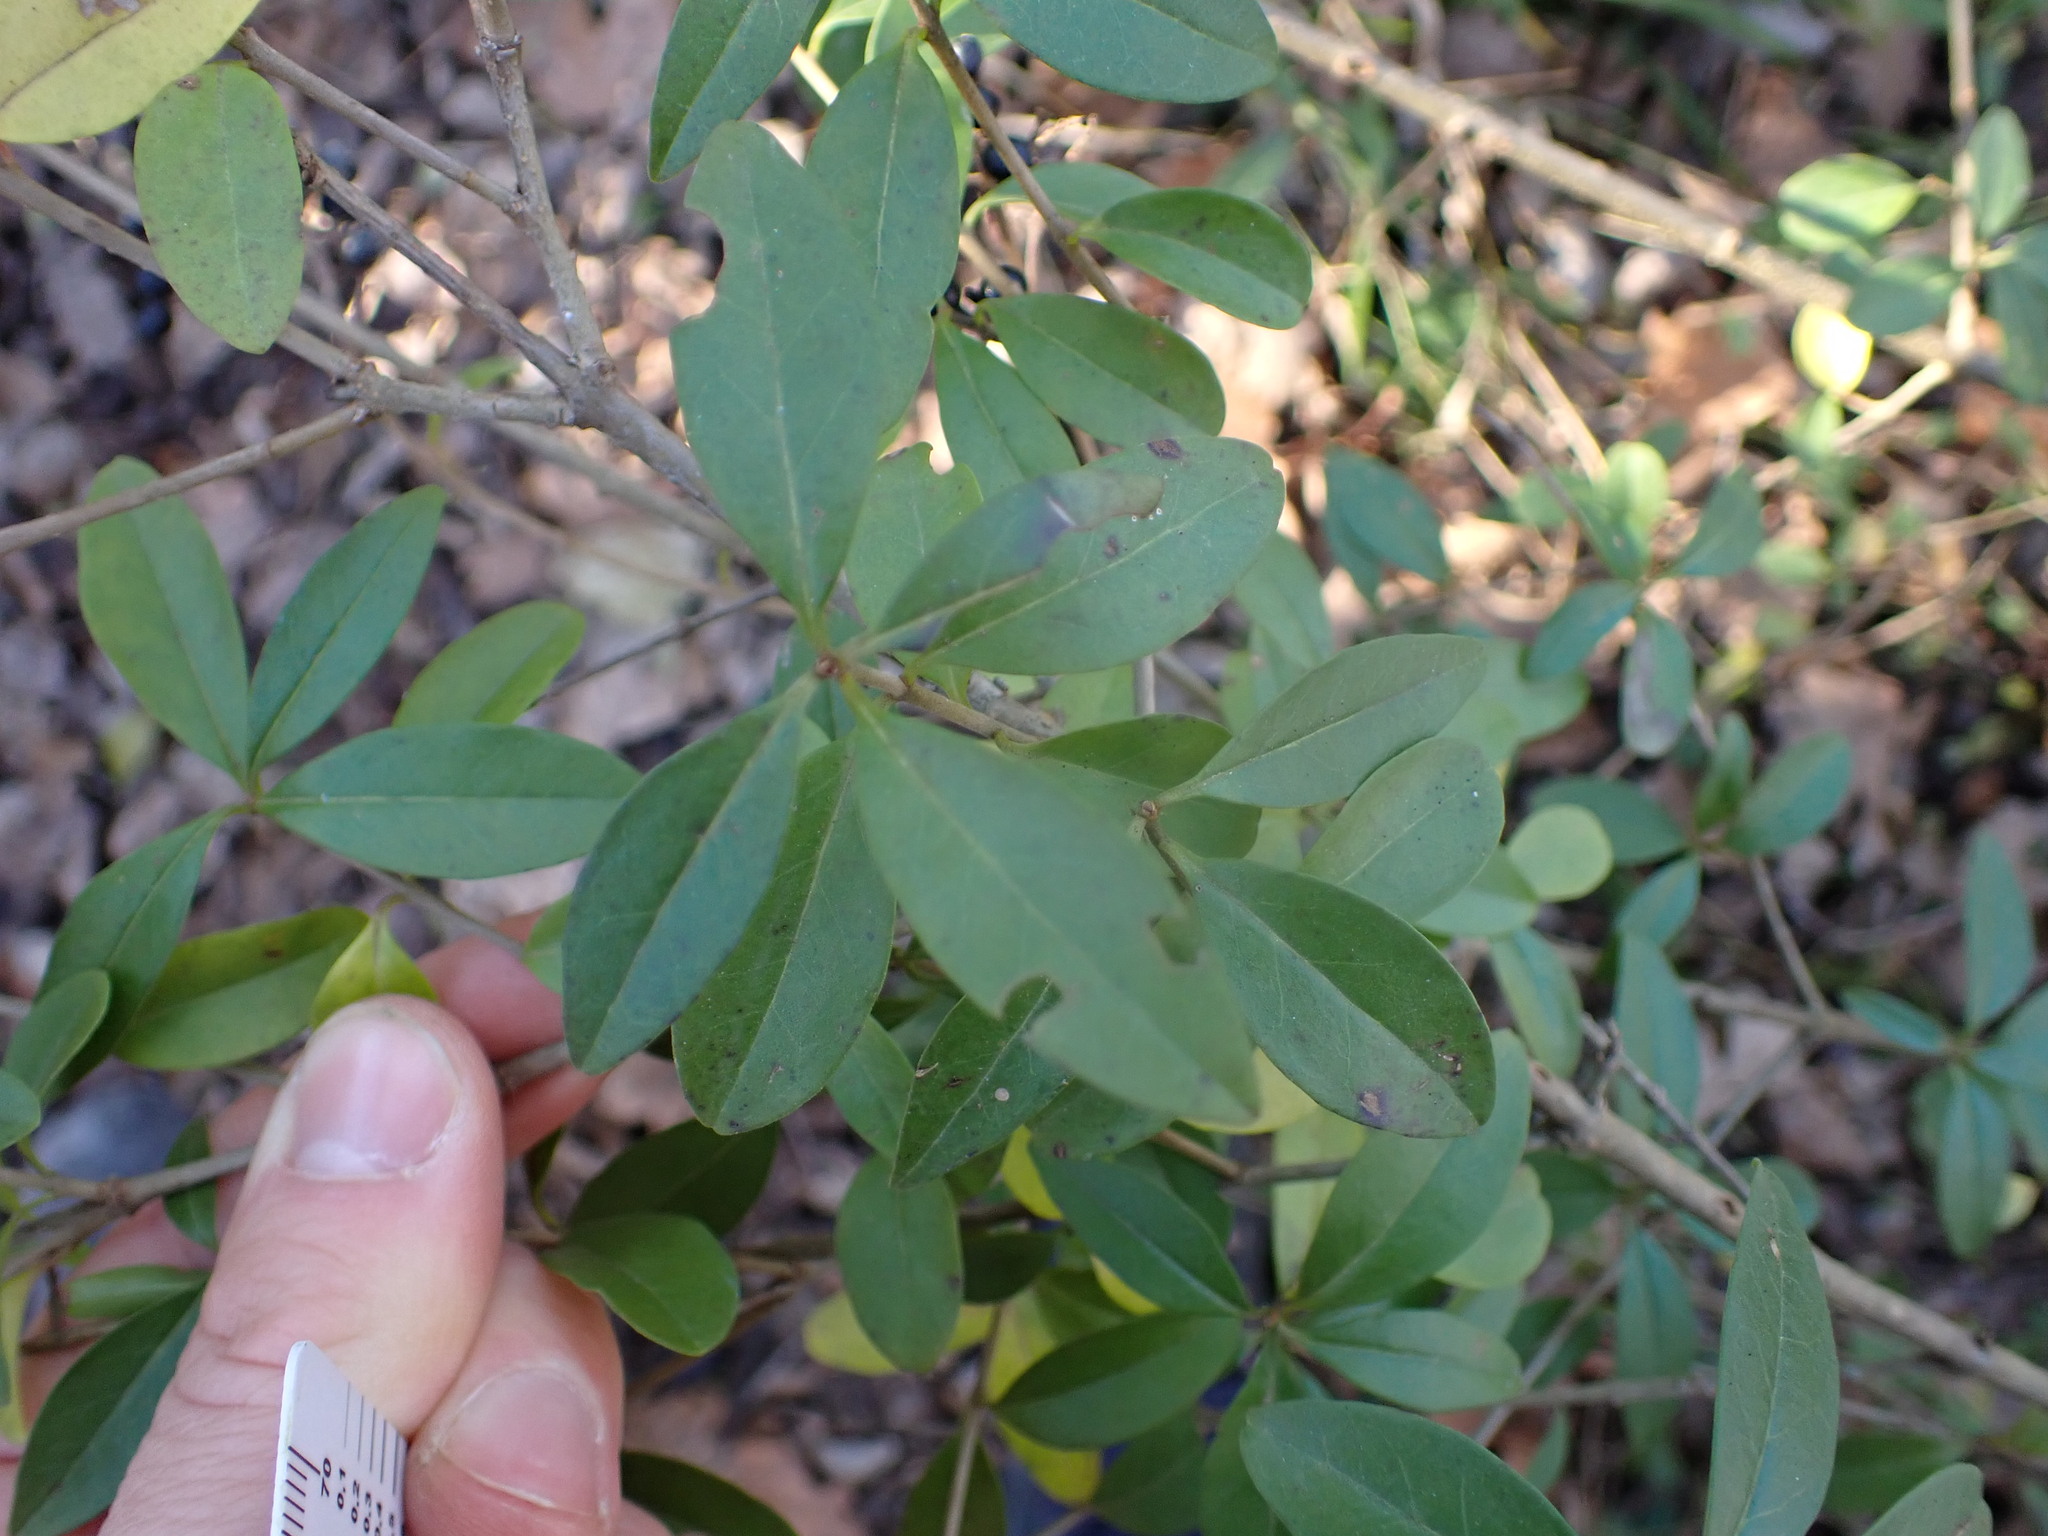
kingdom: Plantae
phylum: Tracheophyta
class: Magnoliopsida
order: Lamiales
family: Oleaceae
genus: Ligustrum
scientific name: Ligustrum vulgare
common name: Wild privet
